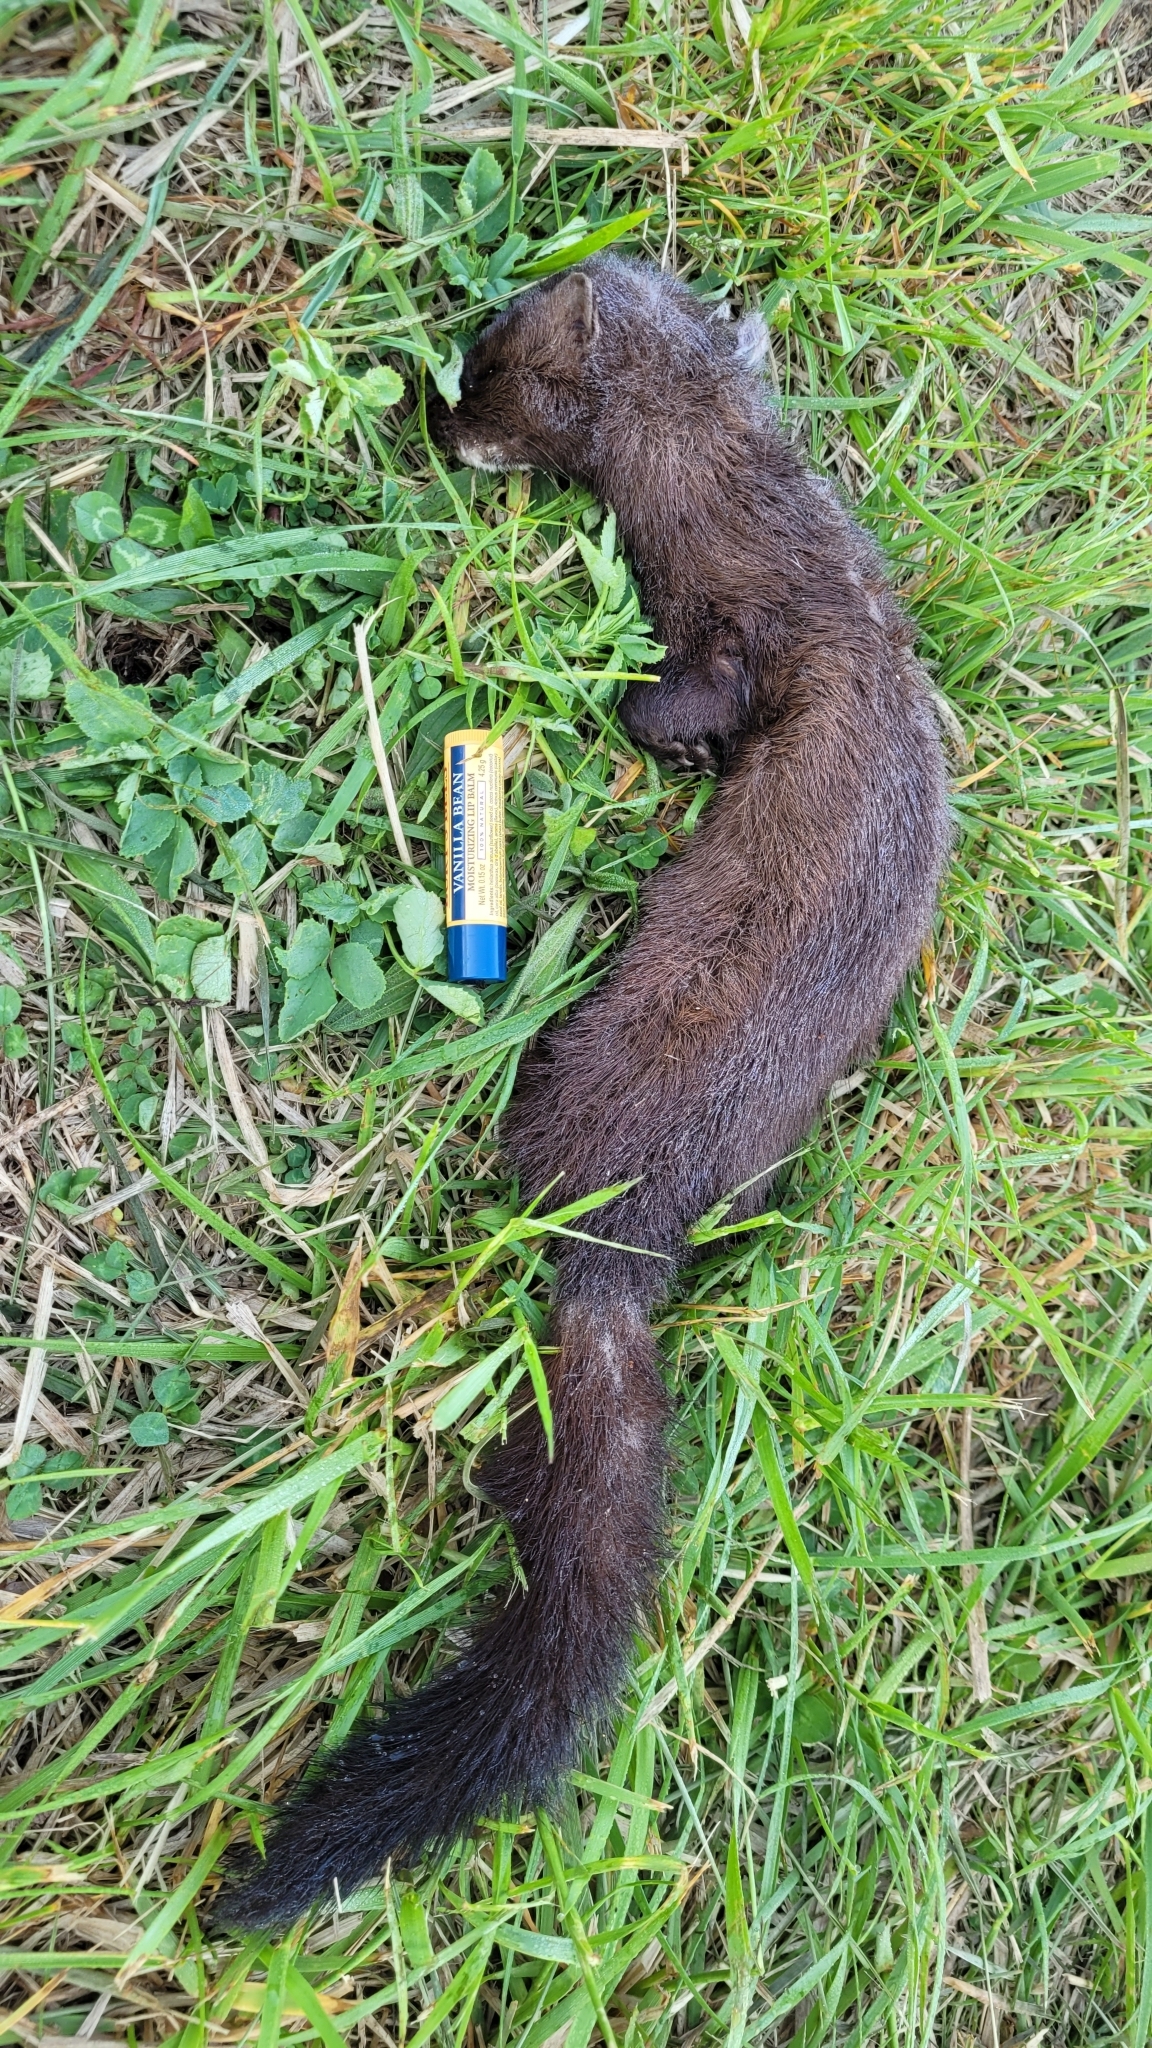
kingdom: Animalia
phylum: Chordata
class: Mammalia
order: Carnivora
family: Mustelidae
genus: Mustela
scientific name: Mustela
